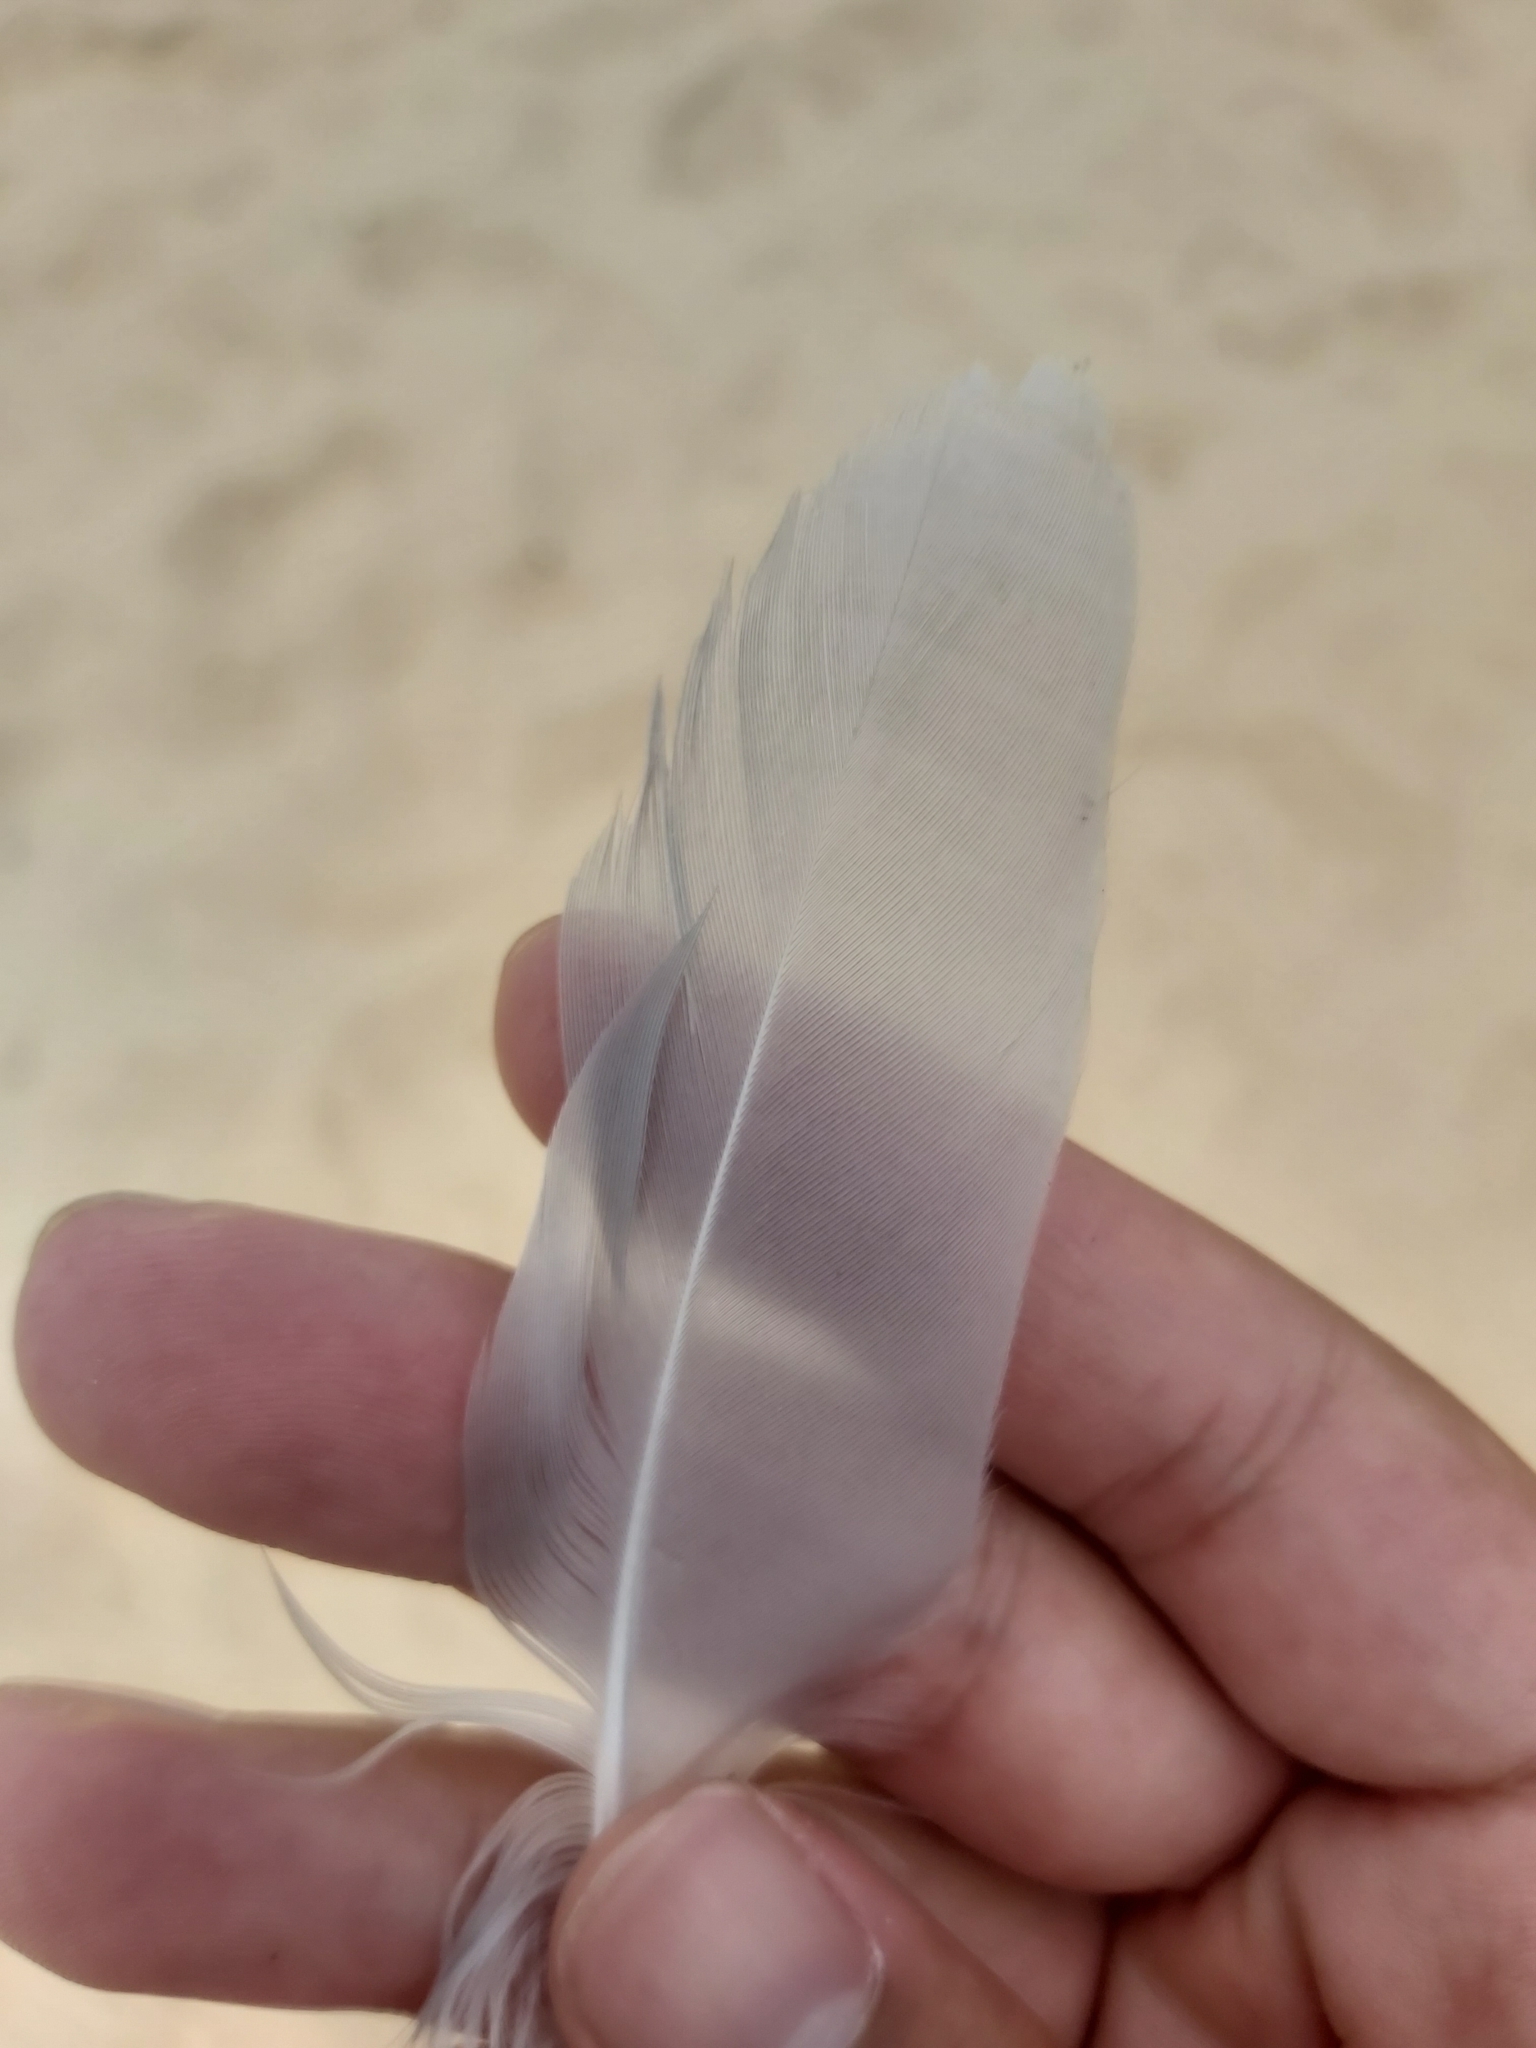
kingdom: Animalia
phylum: Chordata
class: Aves
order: Charadriiformes
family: Laridae
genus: Chroicocephalus
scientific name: Chroicocephalus novaehollandiae
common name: Silver gull
